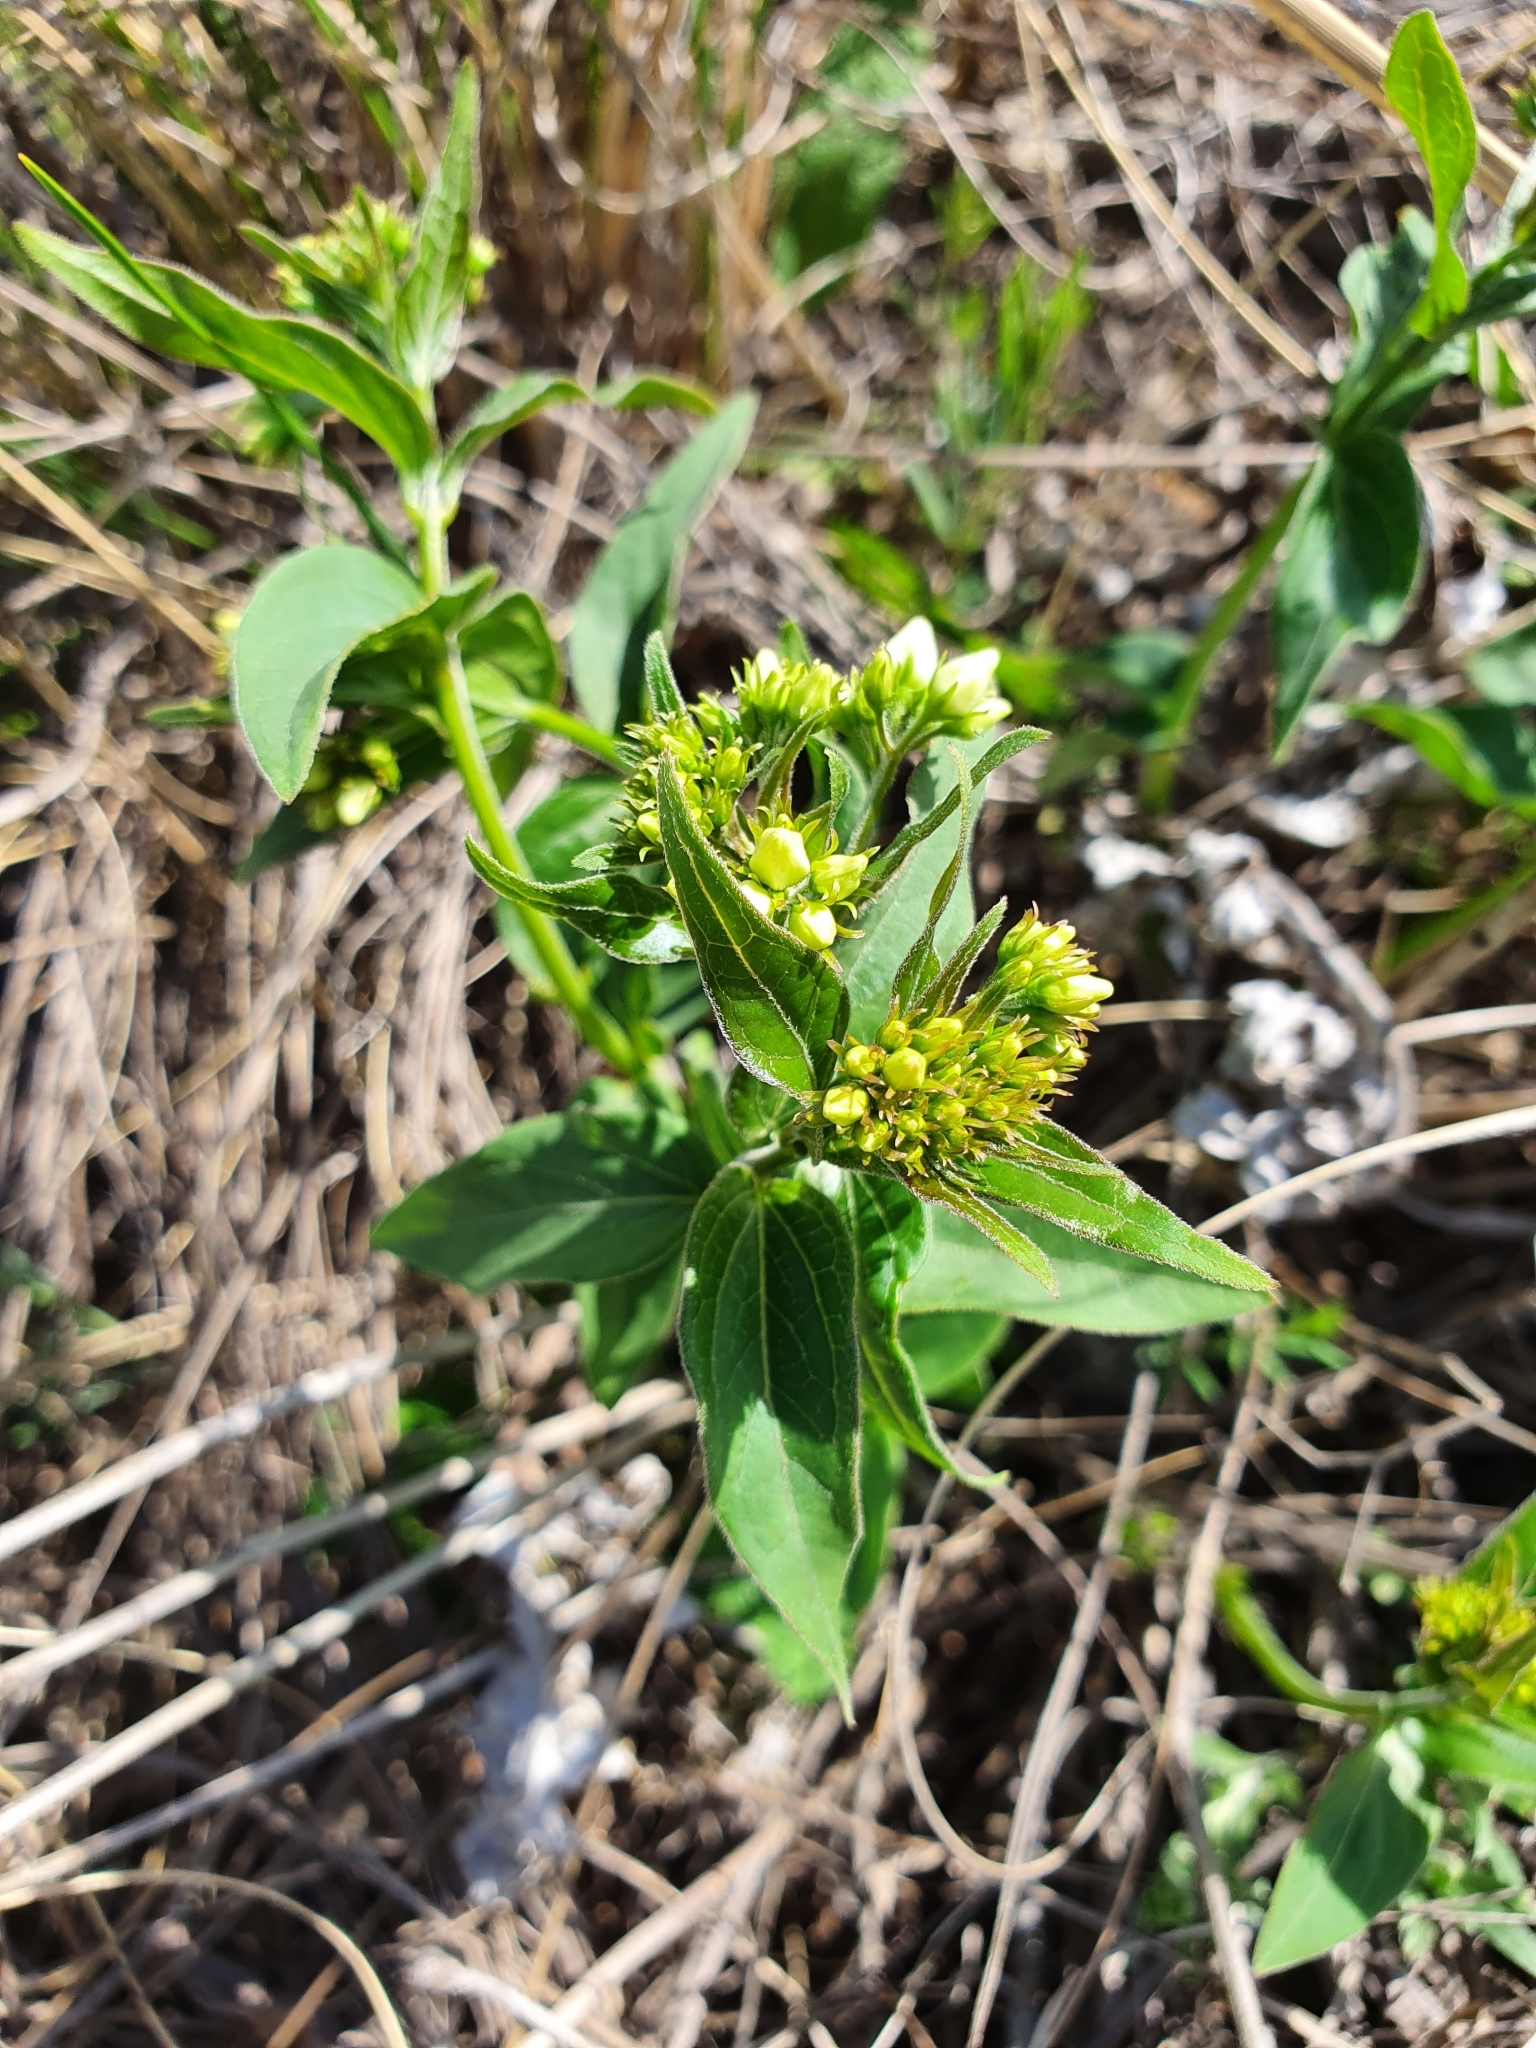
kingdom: Plantae
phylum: Tracheophyta
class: Magnoliopsida
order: Gentianales
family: Apocynaceae
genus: Vincetoxicum
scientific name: Vincetoxicum hirundinaria
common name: White swallowwort
